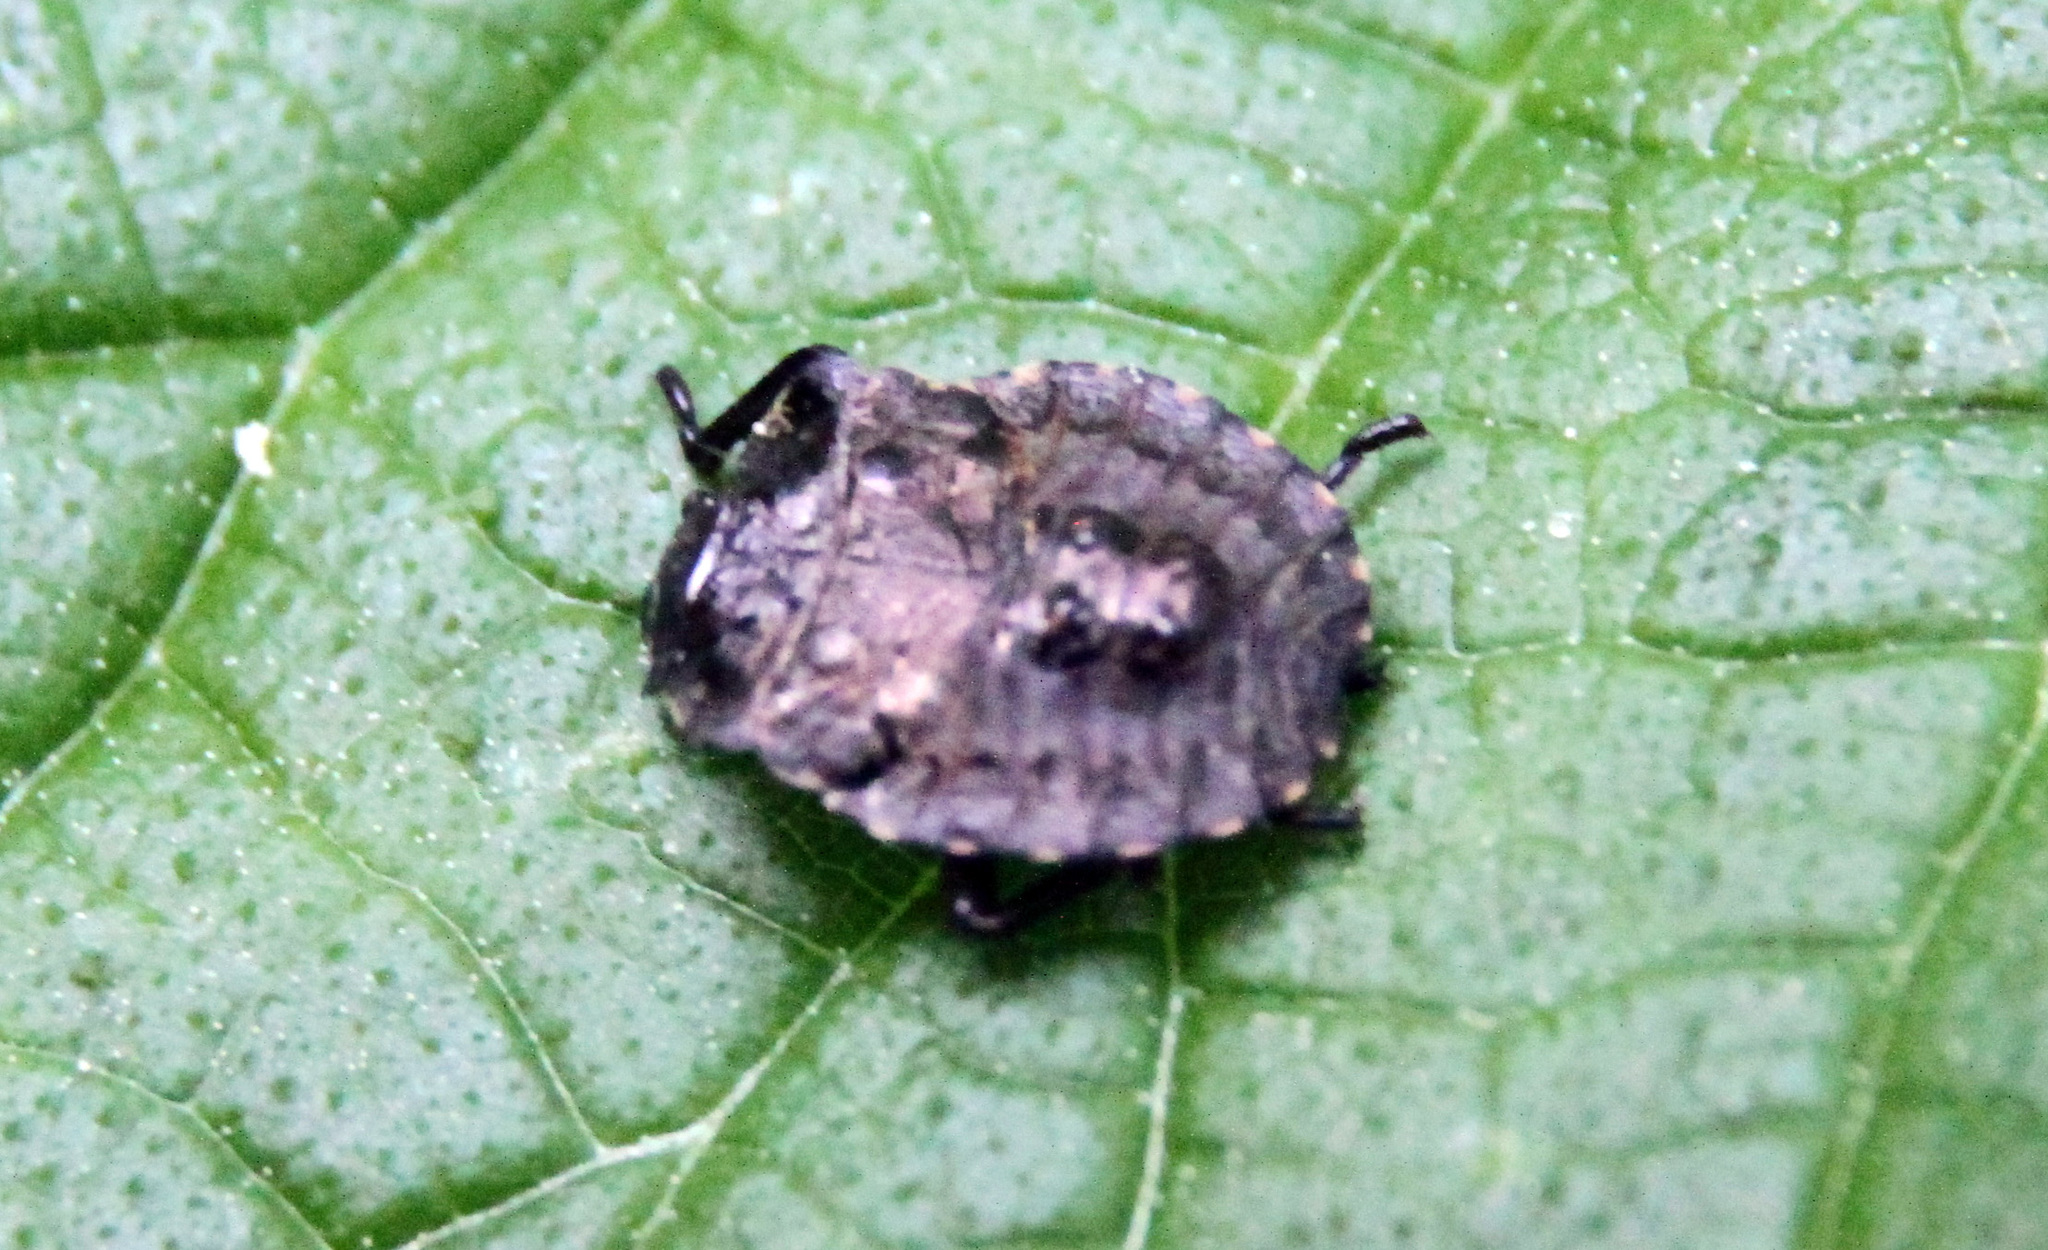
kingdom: Animalia
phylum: Arthropoda
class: Insecta
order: Hemiptera
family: Pentatomidae
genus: Pentatoma
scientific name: Pentatoma rufipes
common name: Forest bug
